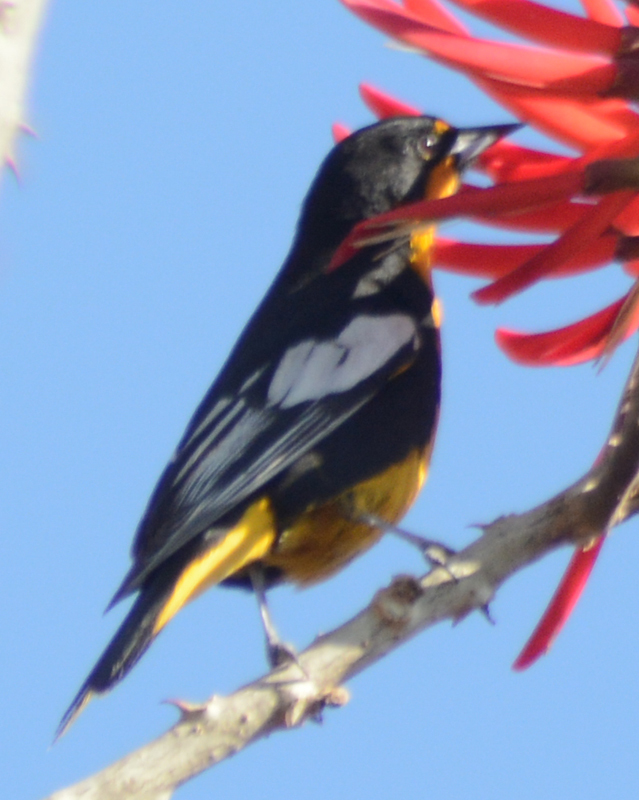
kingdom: Animalia
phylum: Chordata
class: Aves
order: Passeriformes
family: Icteridae
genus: Icterus
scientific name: Icterus abeillei
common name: Black-backed oriole
